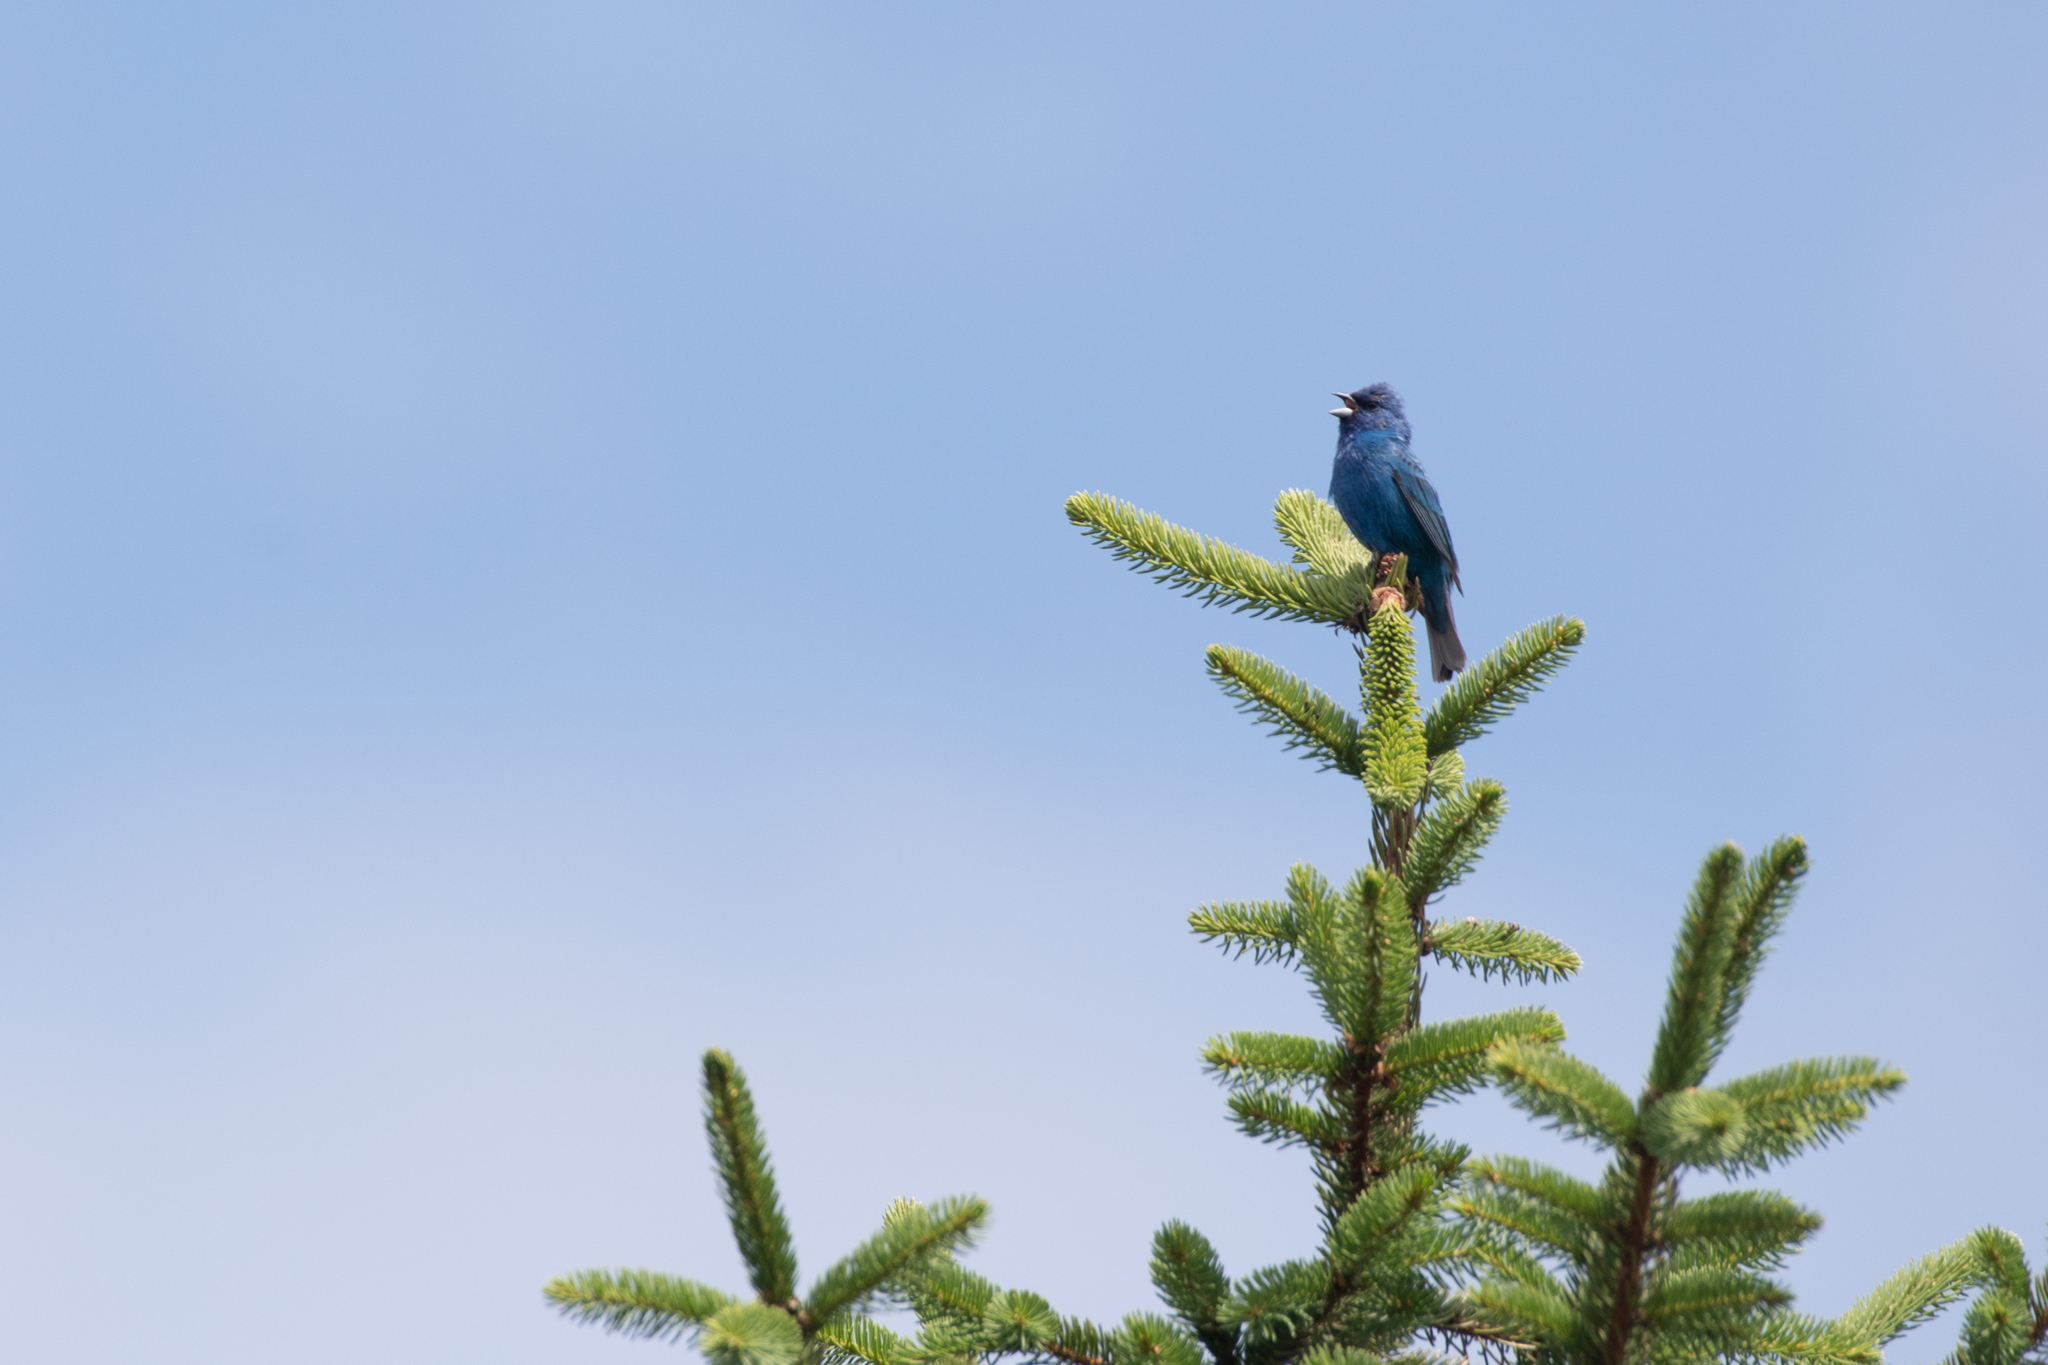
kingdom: Animalia
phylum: Chordata
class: Aves
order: Passeriformes
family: Cardinalidae
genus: Passerina
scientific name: Passerina cyanea
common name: Indigo bunting
